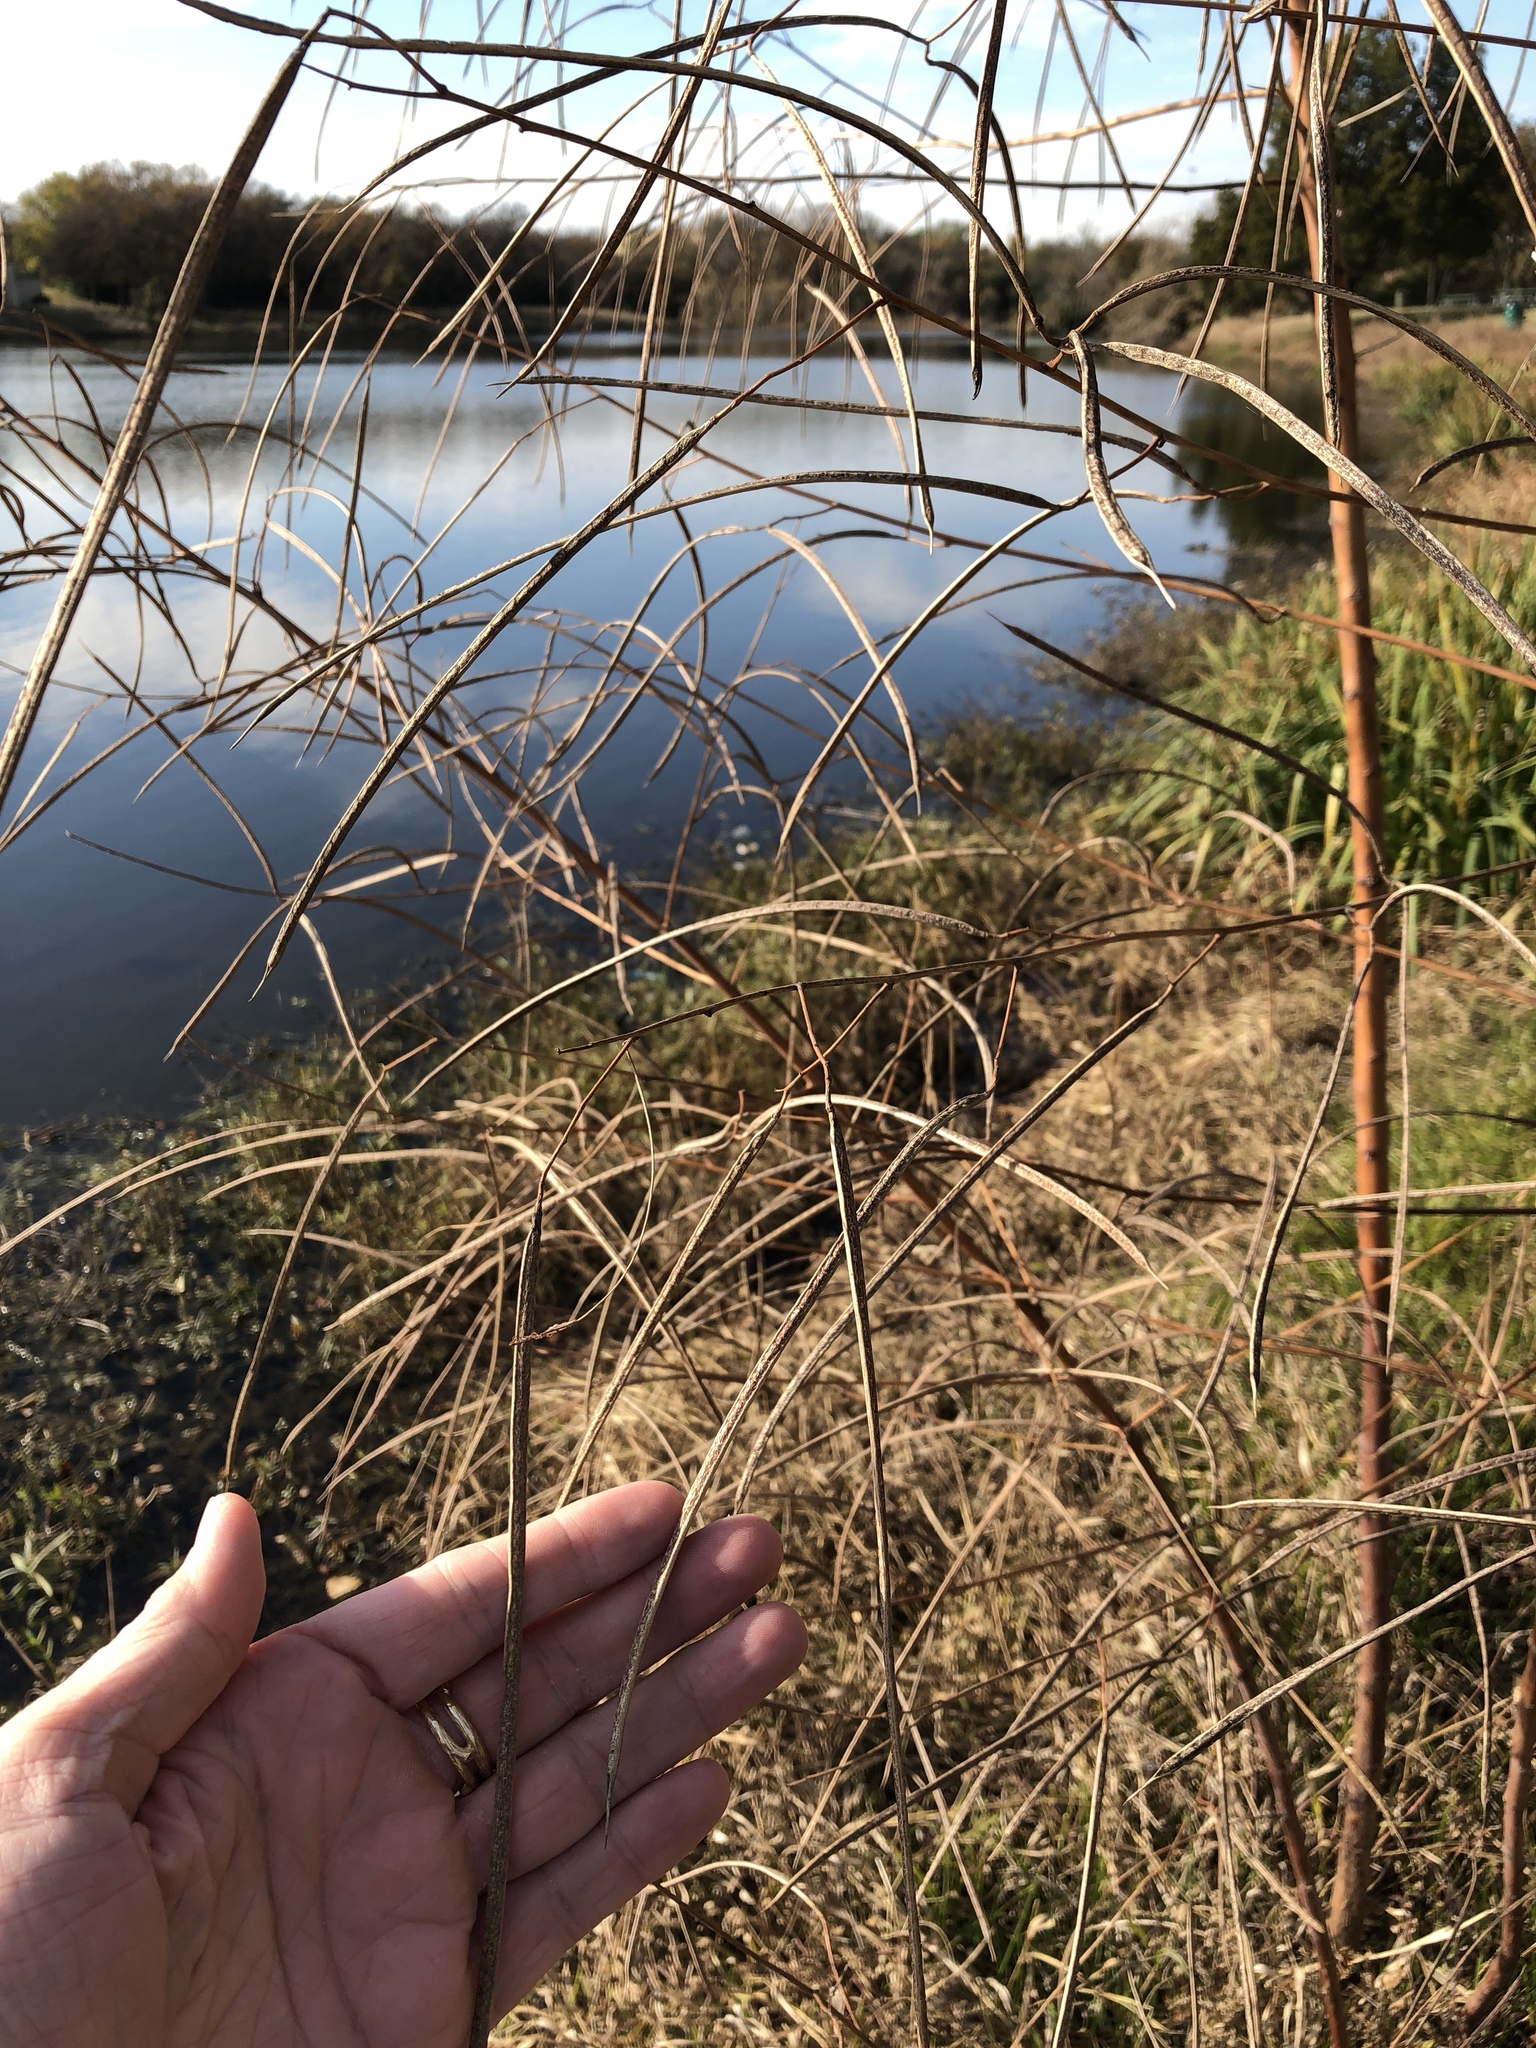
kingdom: Plantae
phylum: Tracheophyta
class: Magnoliopsida
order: Fabales
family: Fabaceae
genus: Sesbania
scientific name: Sesbania herbacea
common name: Bigpod sesbania
